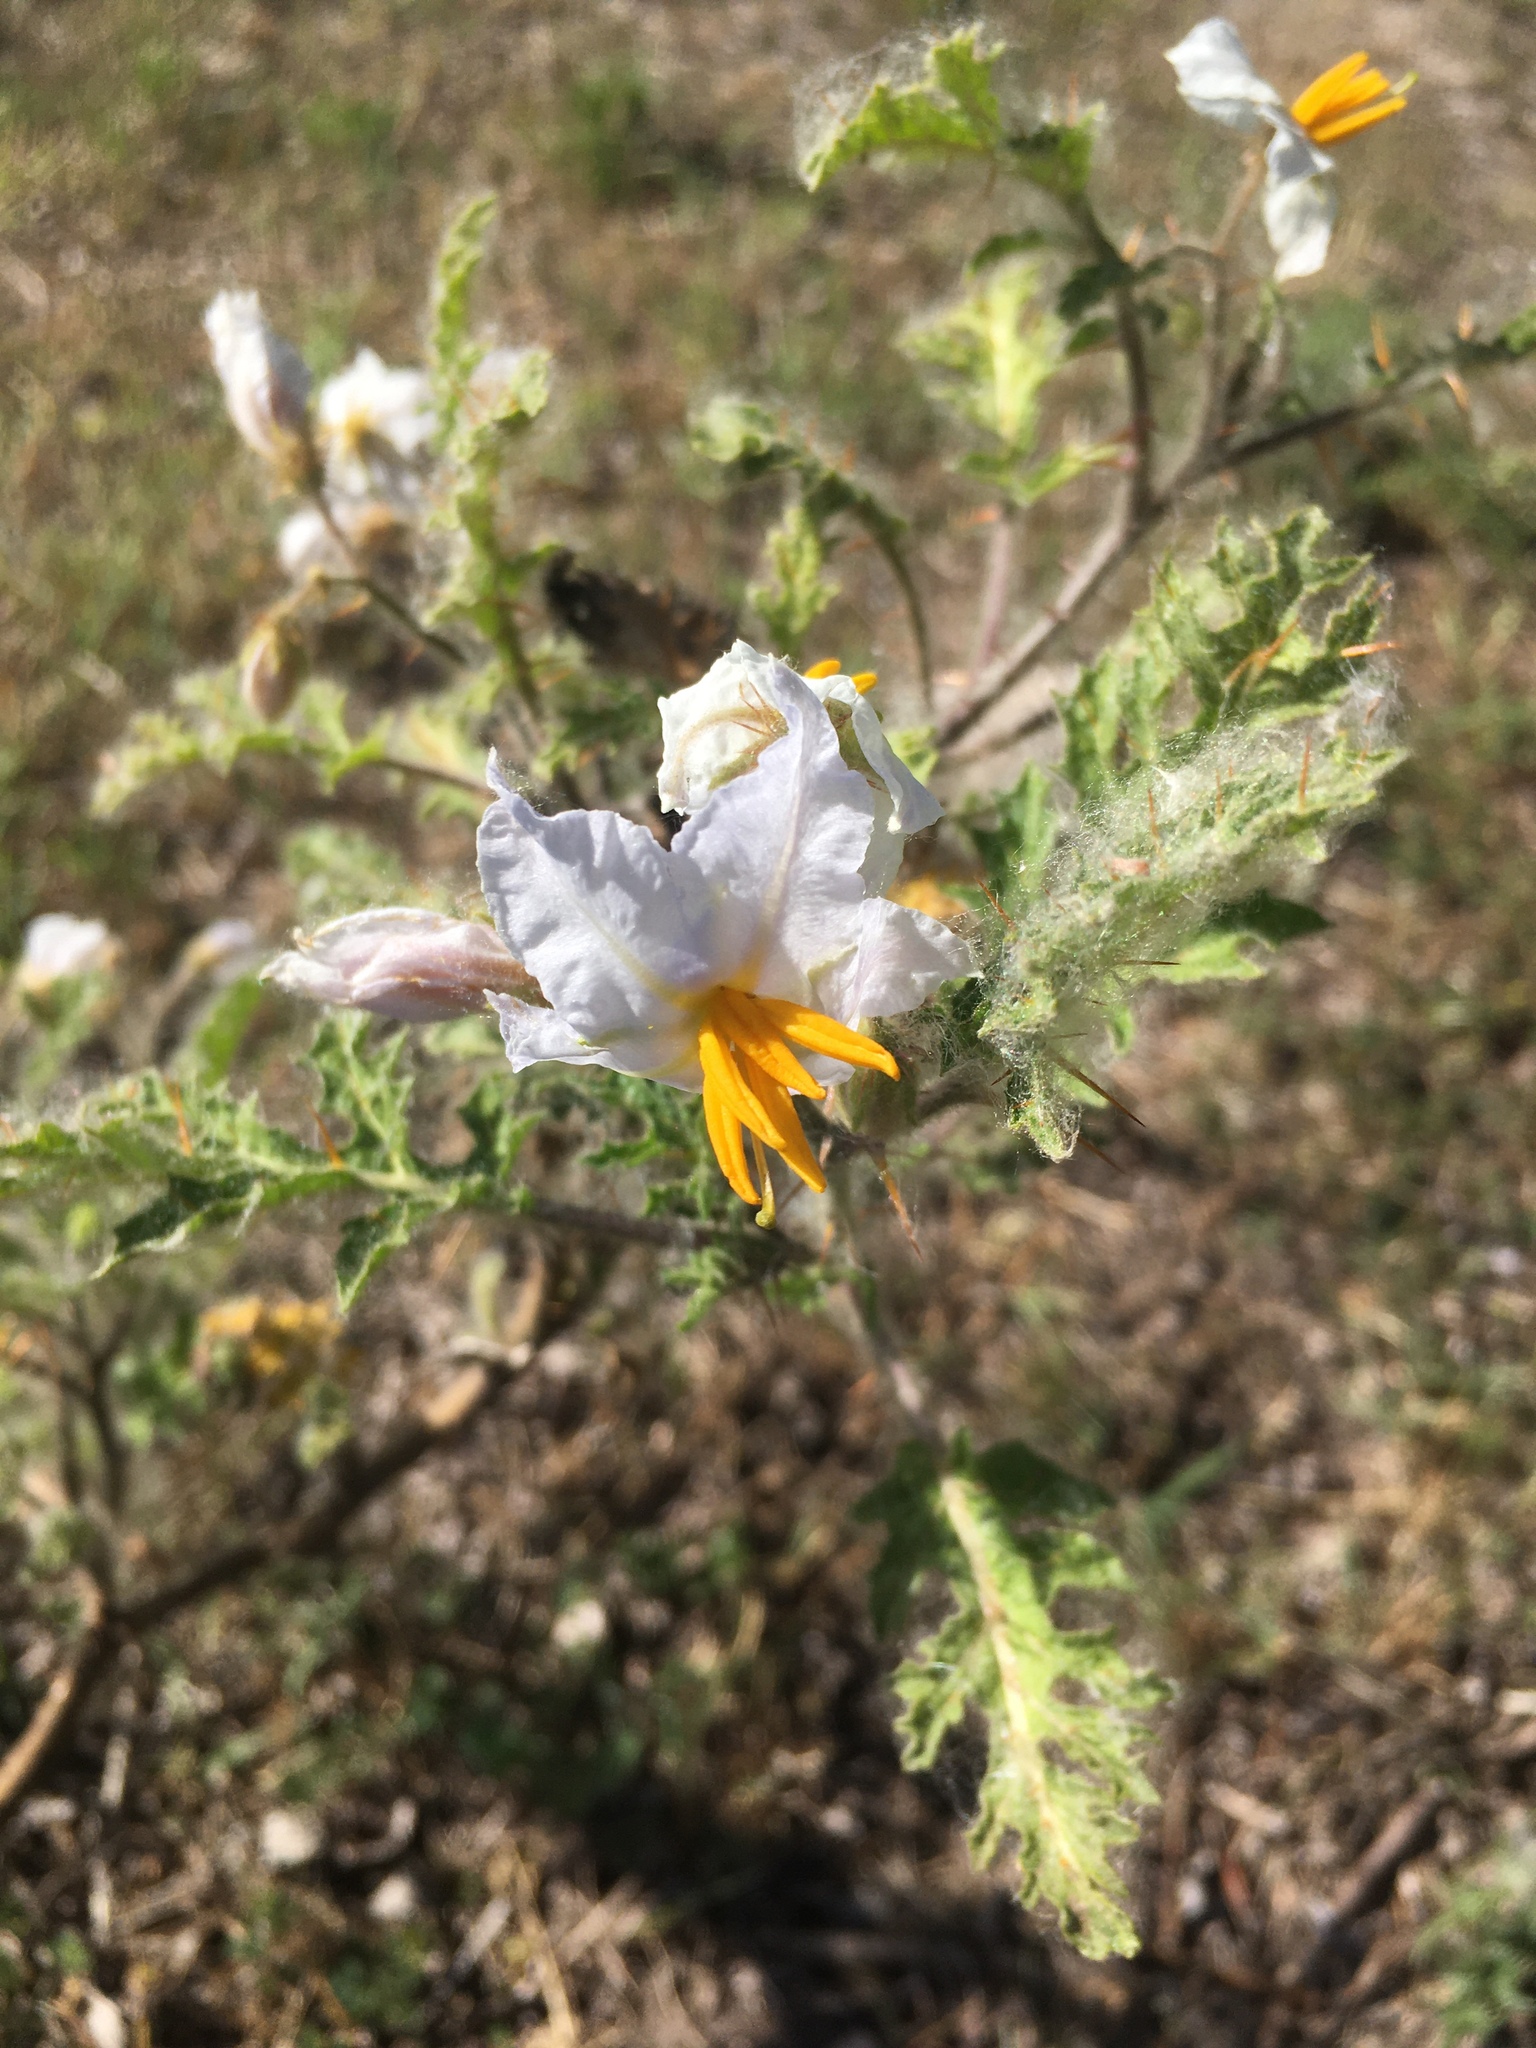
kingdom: Plantae
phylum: Tracheophyta
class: Magnoliopsida
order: Solanales
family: Solanaceae
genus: Solanum
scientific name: Solanum sisymbriifolium
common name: Red buffalo-bur
